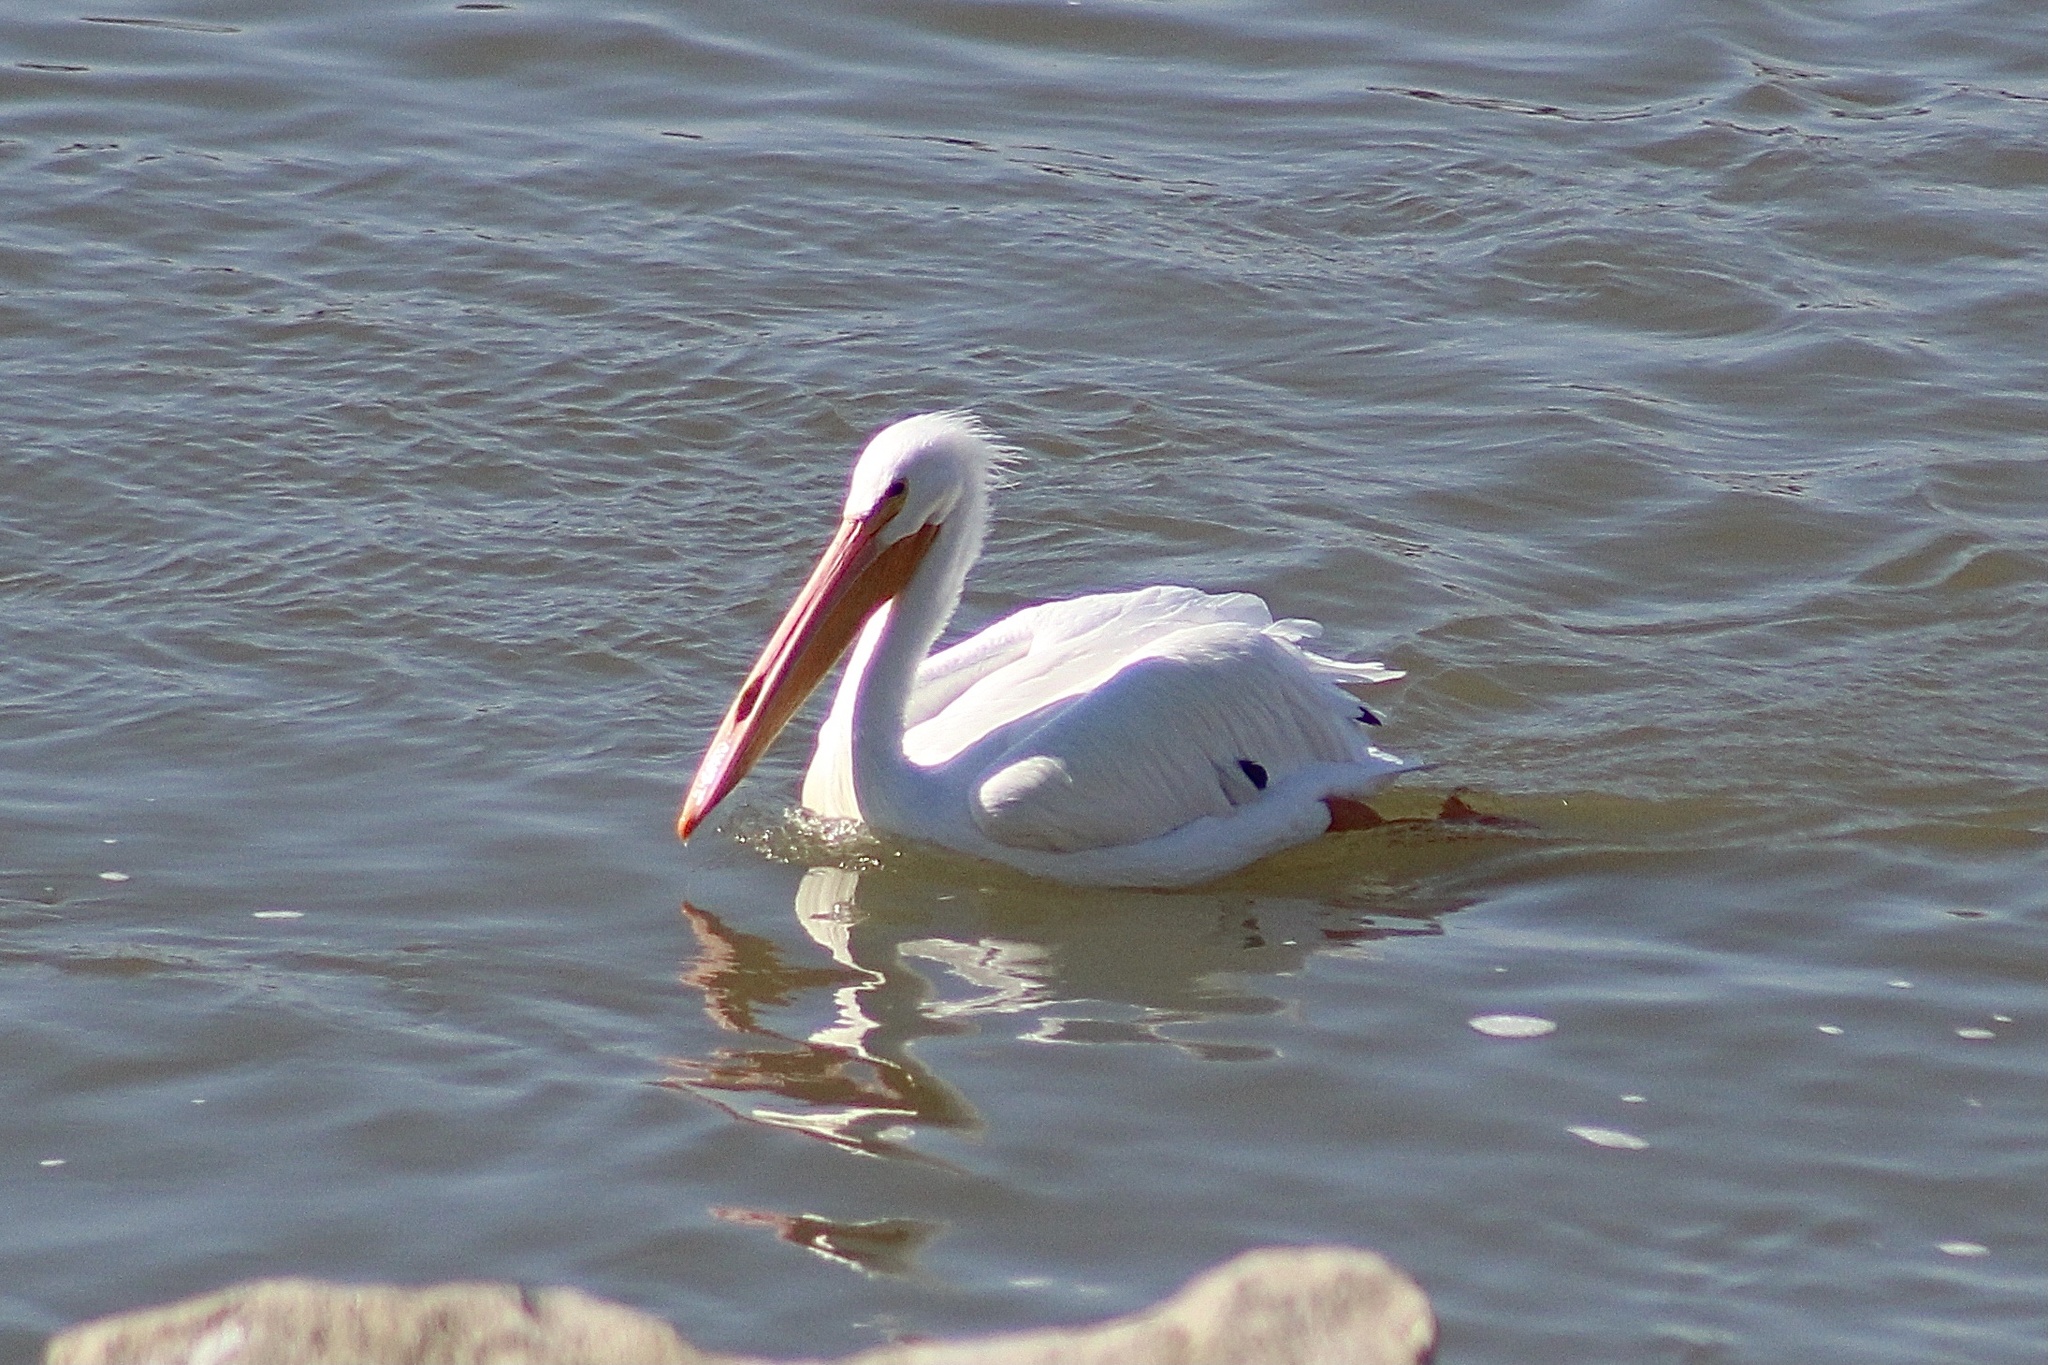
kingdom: Animalia
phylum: Chordata
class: Aves
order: Pelecaniformes
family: Pelecanidae
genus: Pelecanus
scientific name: Pelecanus erythrorhynchos
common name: American white pelican
